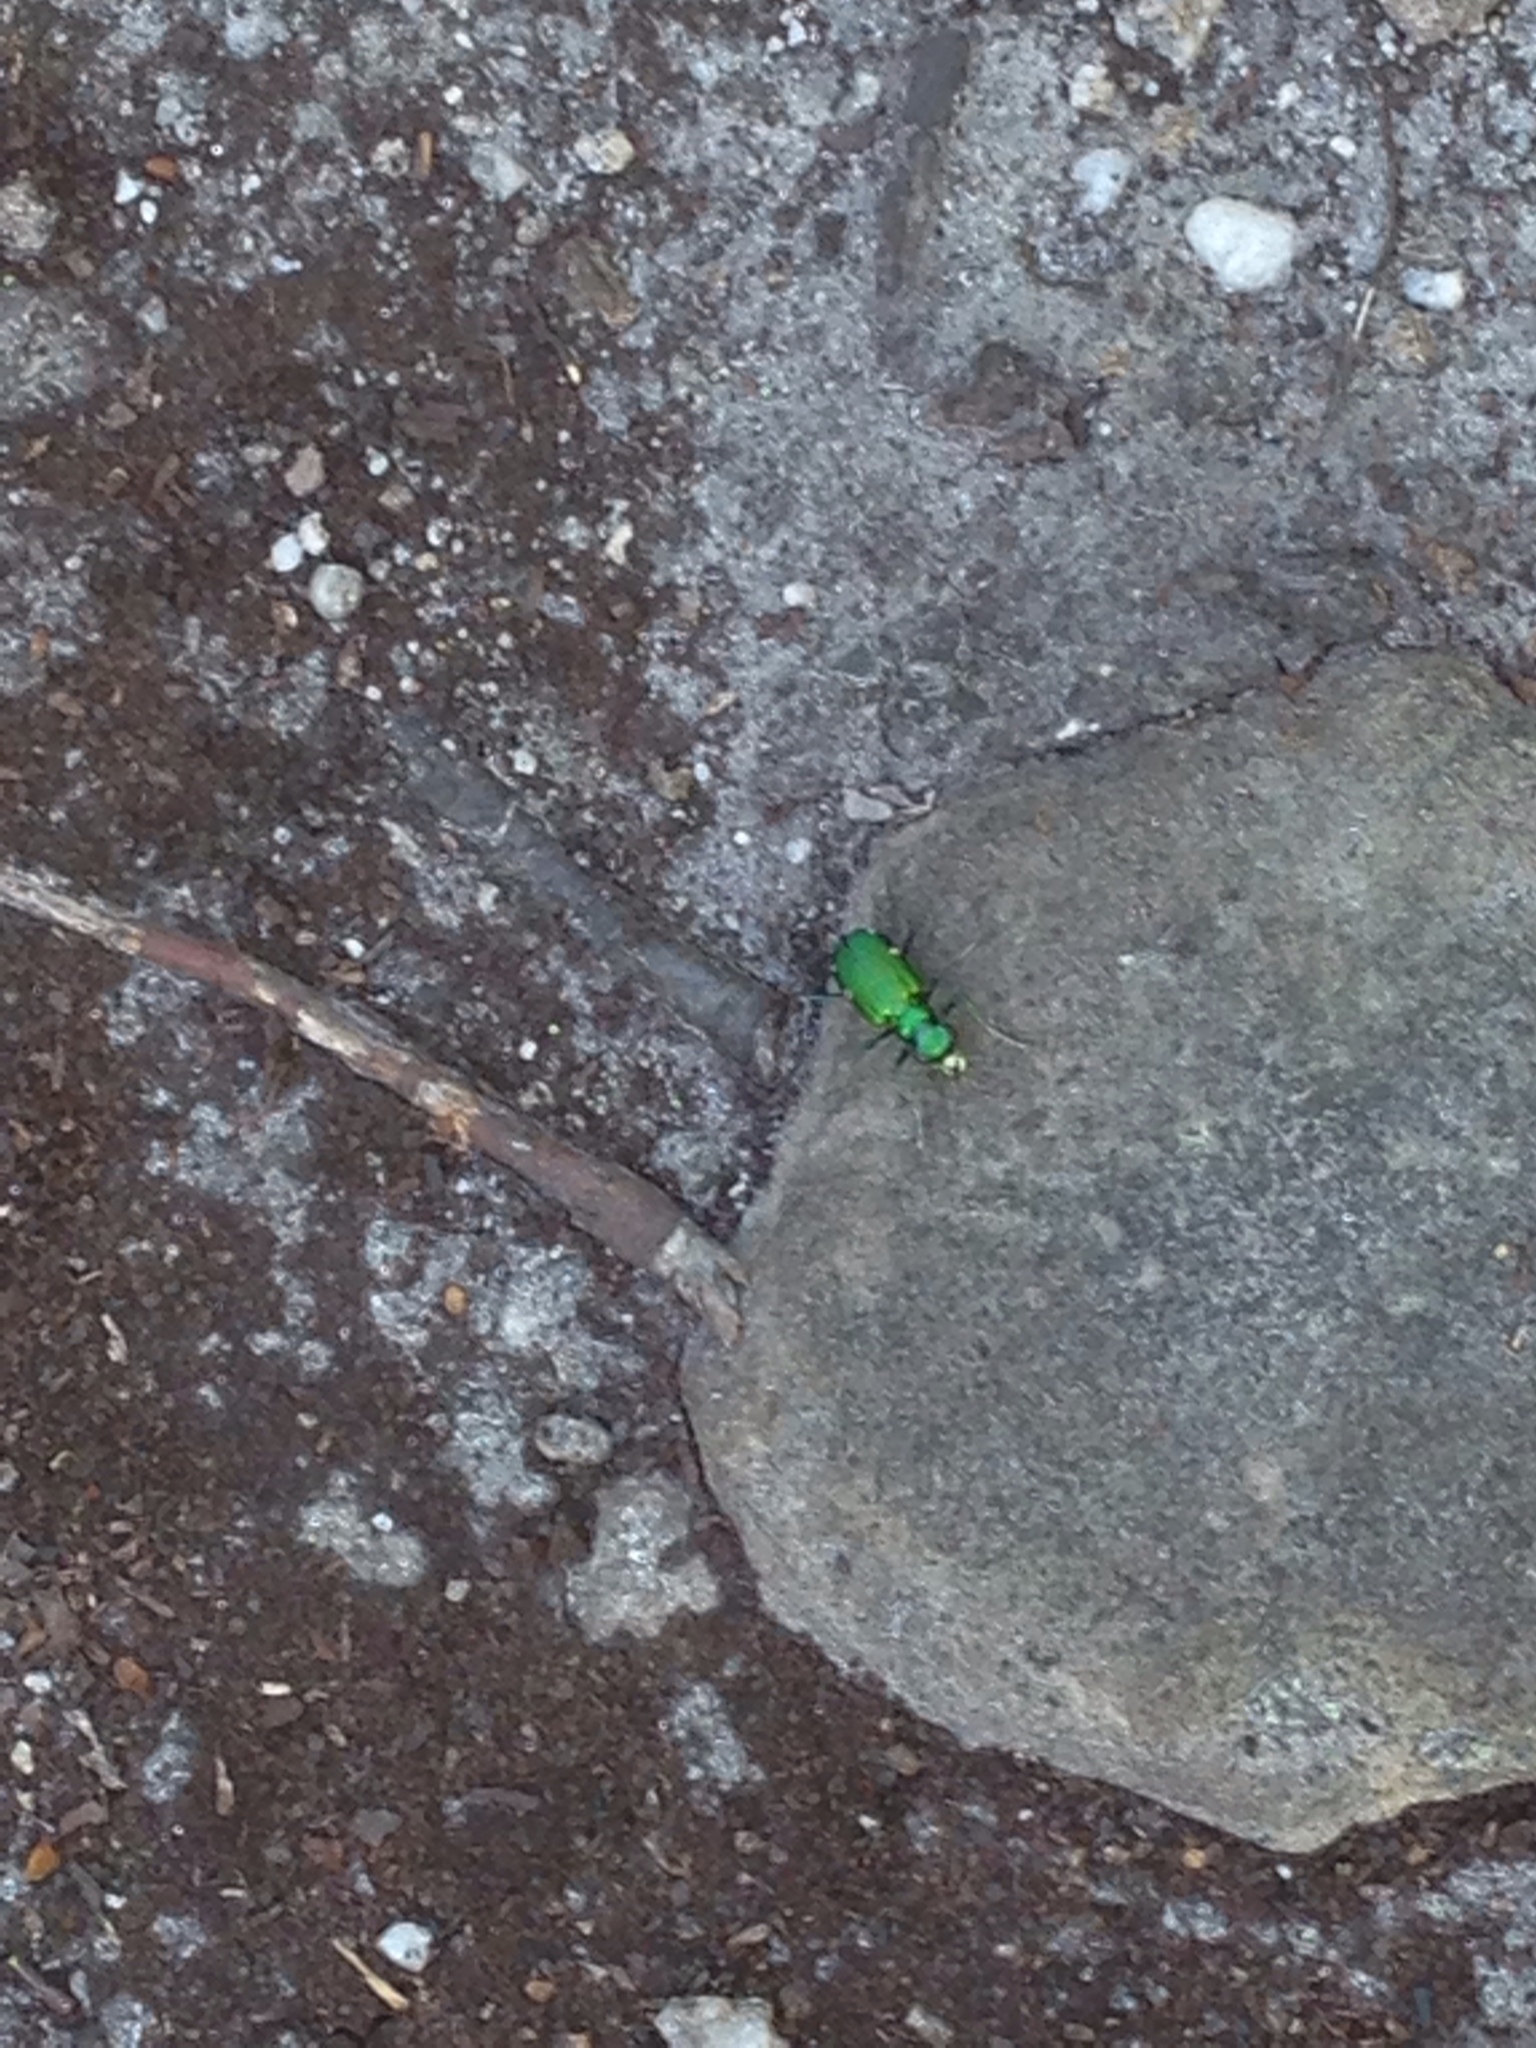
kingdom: Animalia
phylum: Arthropoda
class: Insecta
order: Coleoptera
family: Carabidae
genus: Cicindela
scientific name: Cicindela sexguttata
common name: Six-spotted tiger beetle
